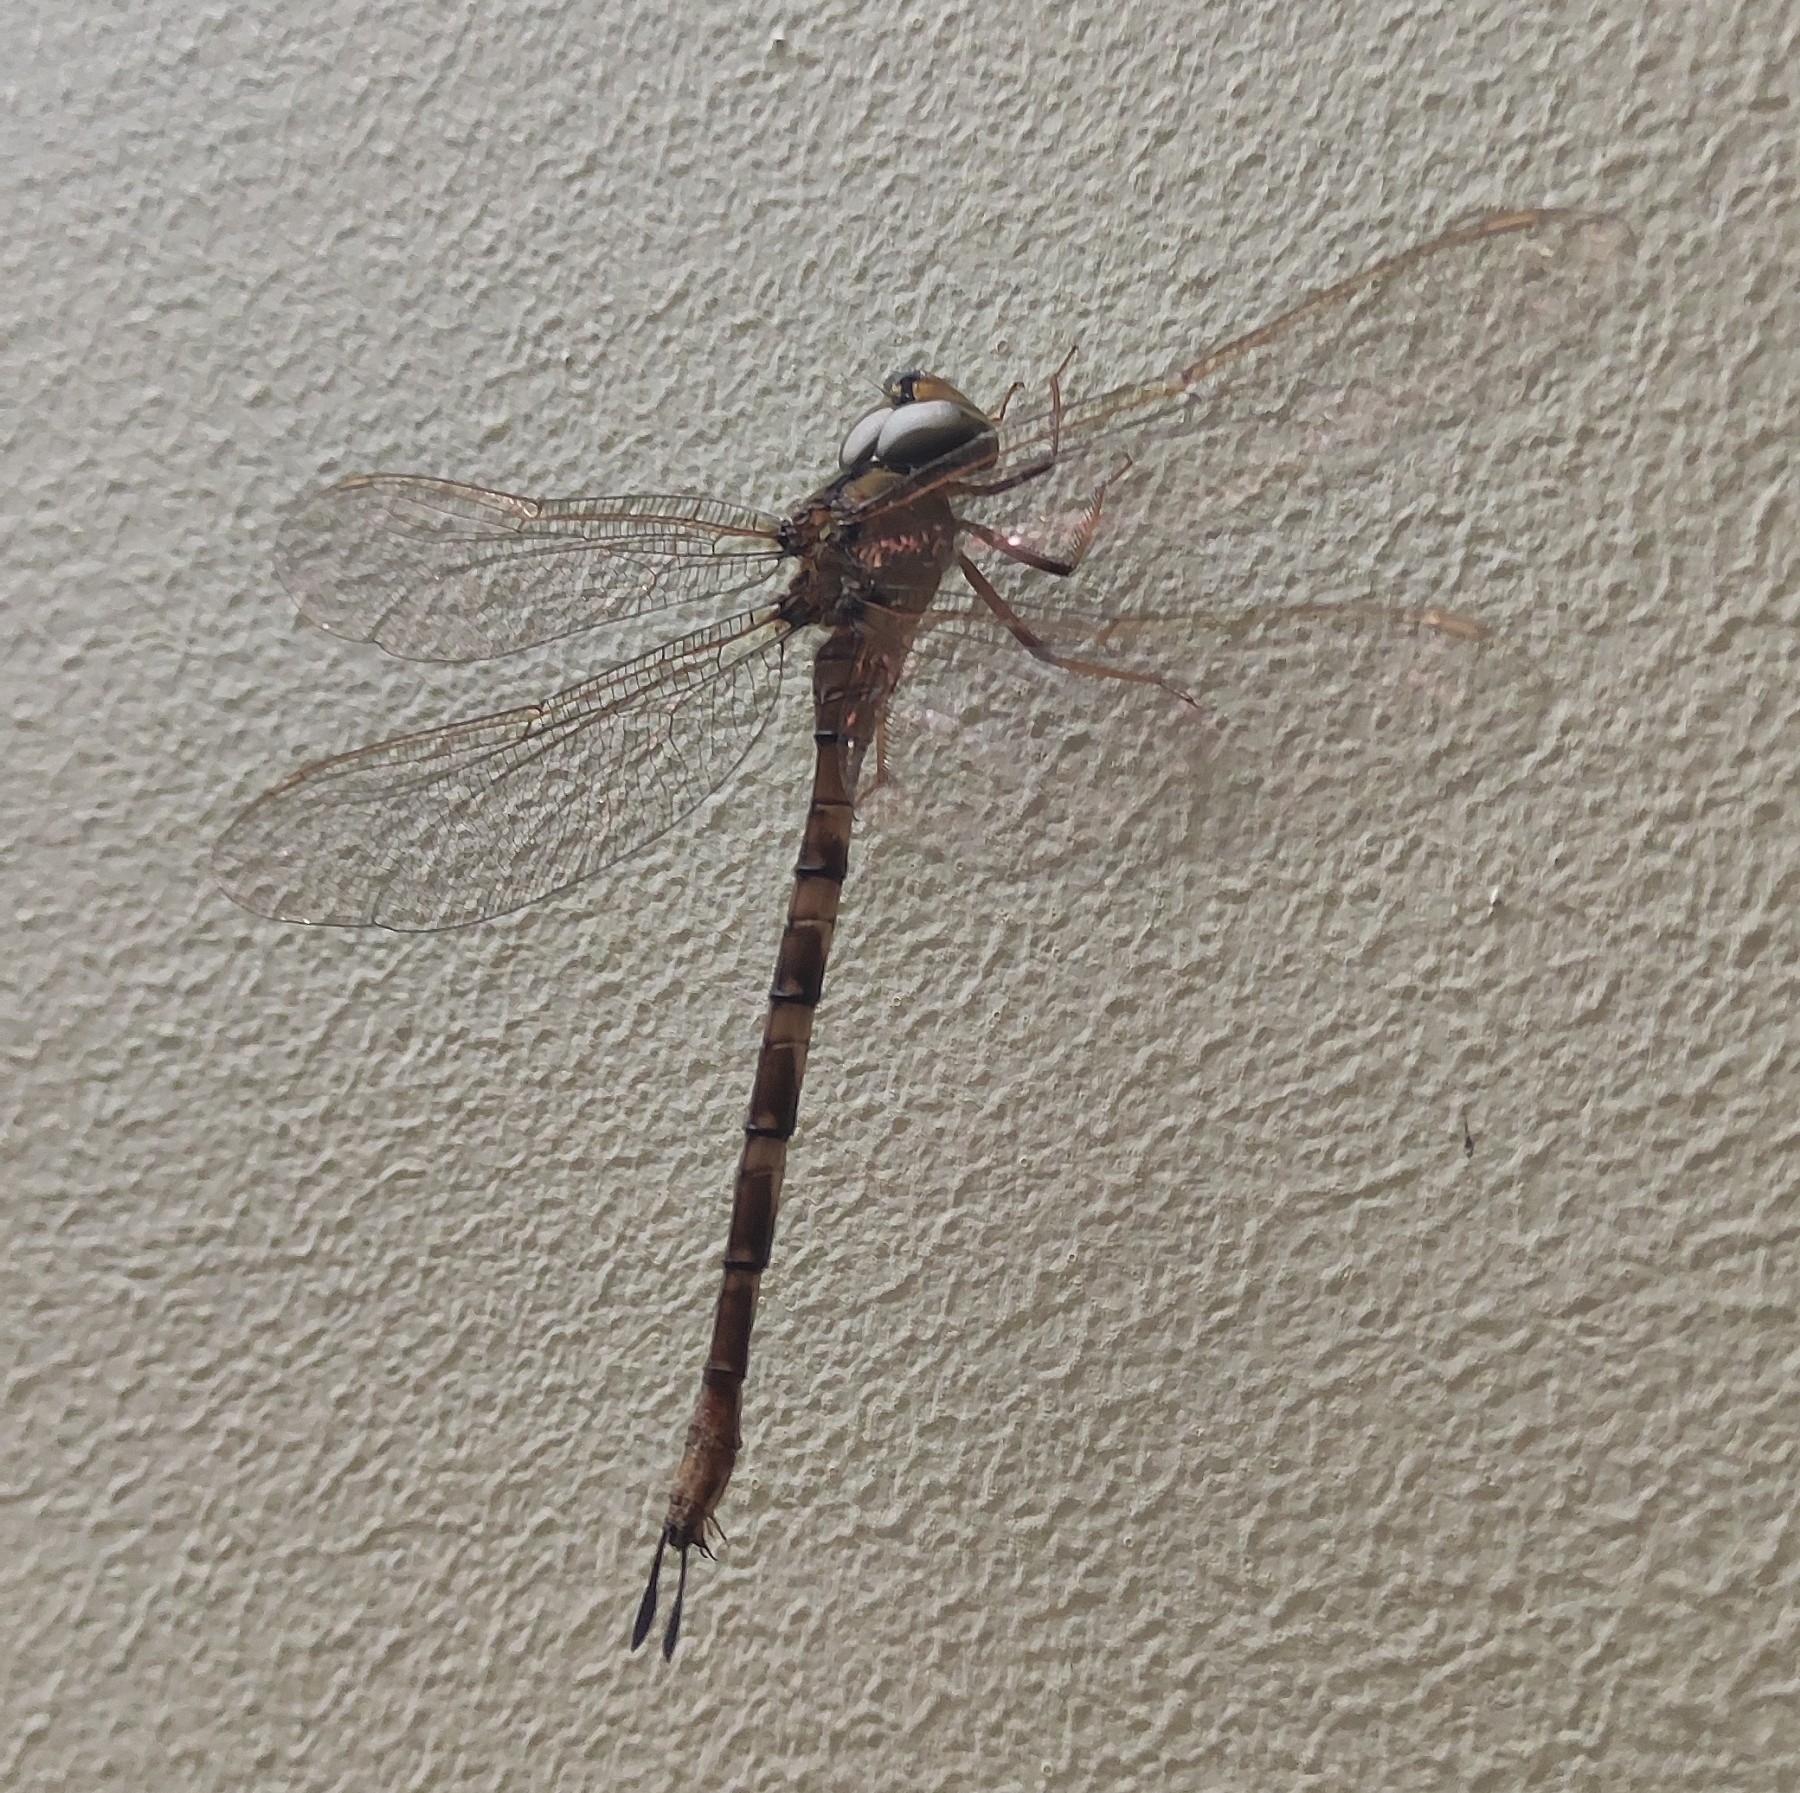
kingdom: Animalia
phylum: Arthropoda
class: Insecta
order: Odonata
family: Aeshnidae
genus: Gynacantha
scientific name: Gynacantha dravida
